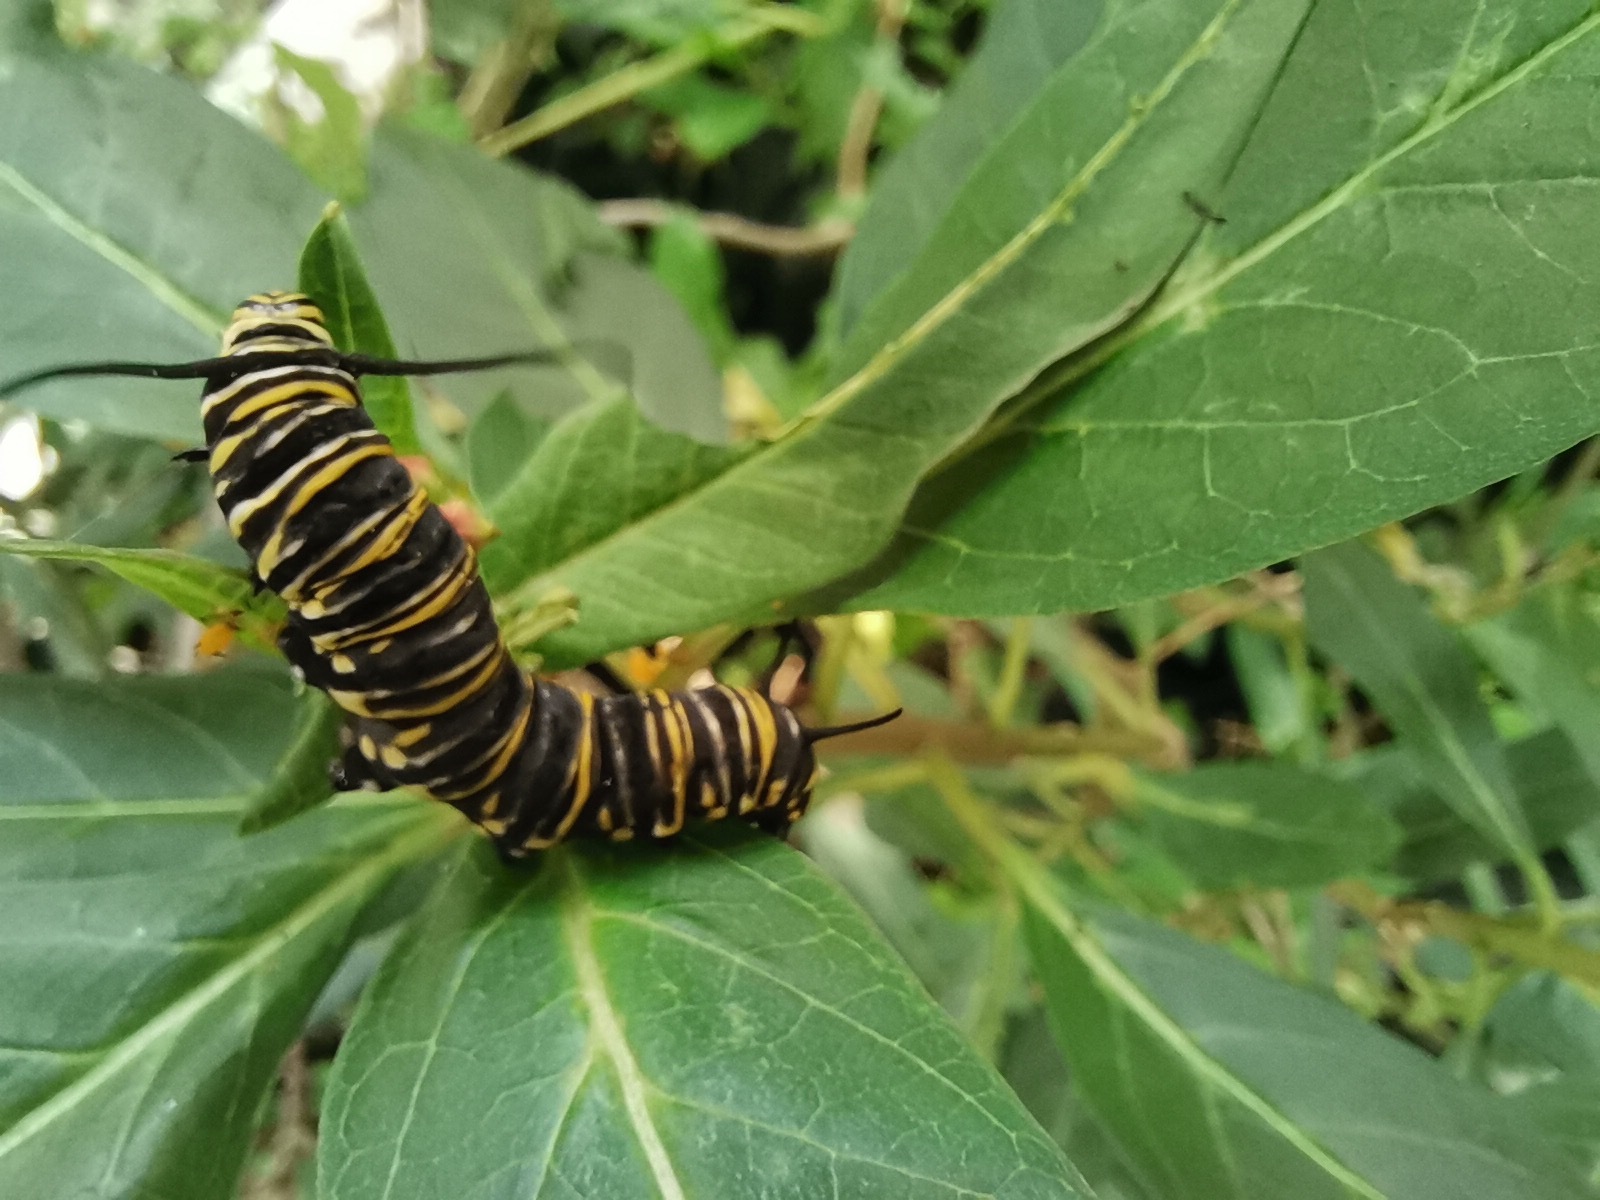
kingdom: Animalia
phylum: Arthropoda
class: Insecta
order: Lepidoptera
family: Nymphalidae
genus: Danaus
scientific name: Danaus plexippus
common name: Monarch
